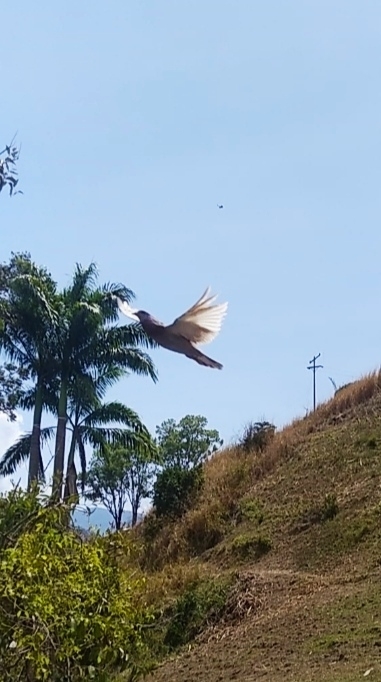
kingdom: Animalia
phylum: Chordata
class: Aves
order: Columbiformes
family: Columbidae
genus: Columba
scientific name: Columba livia
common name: Rock pigeon
